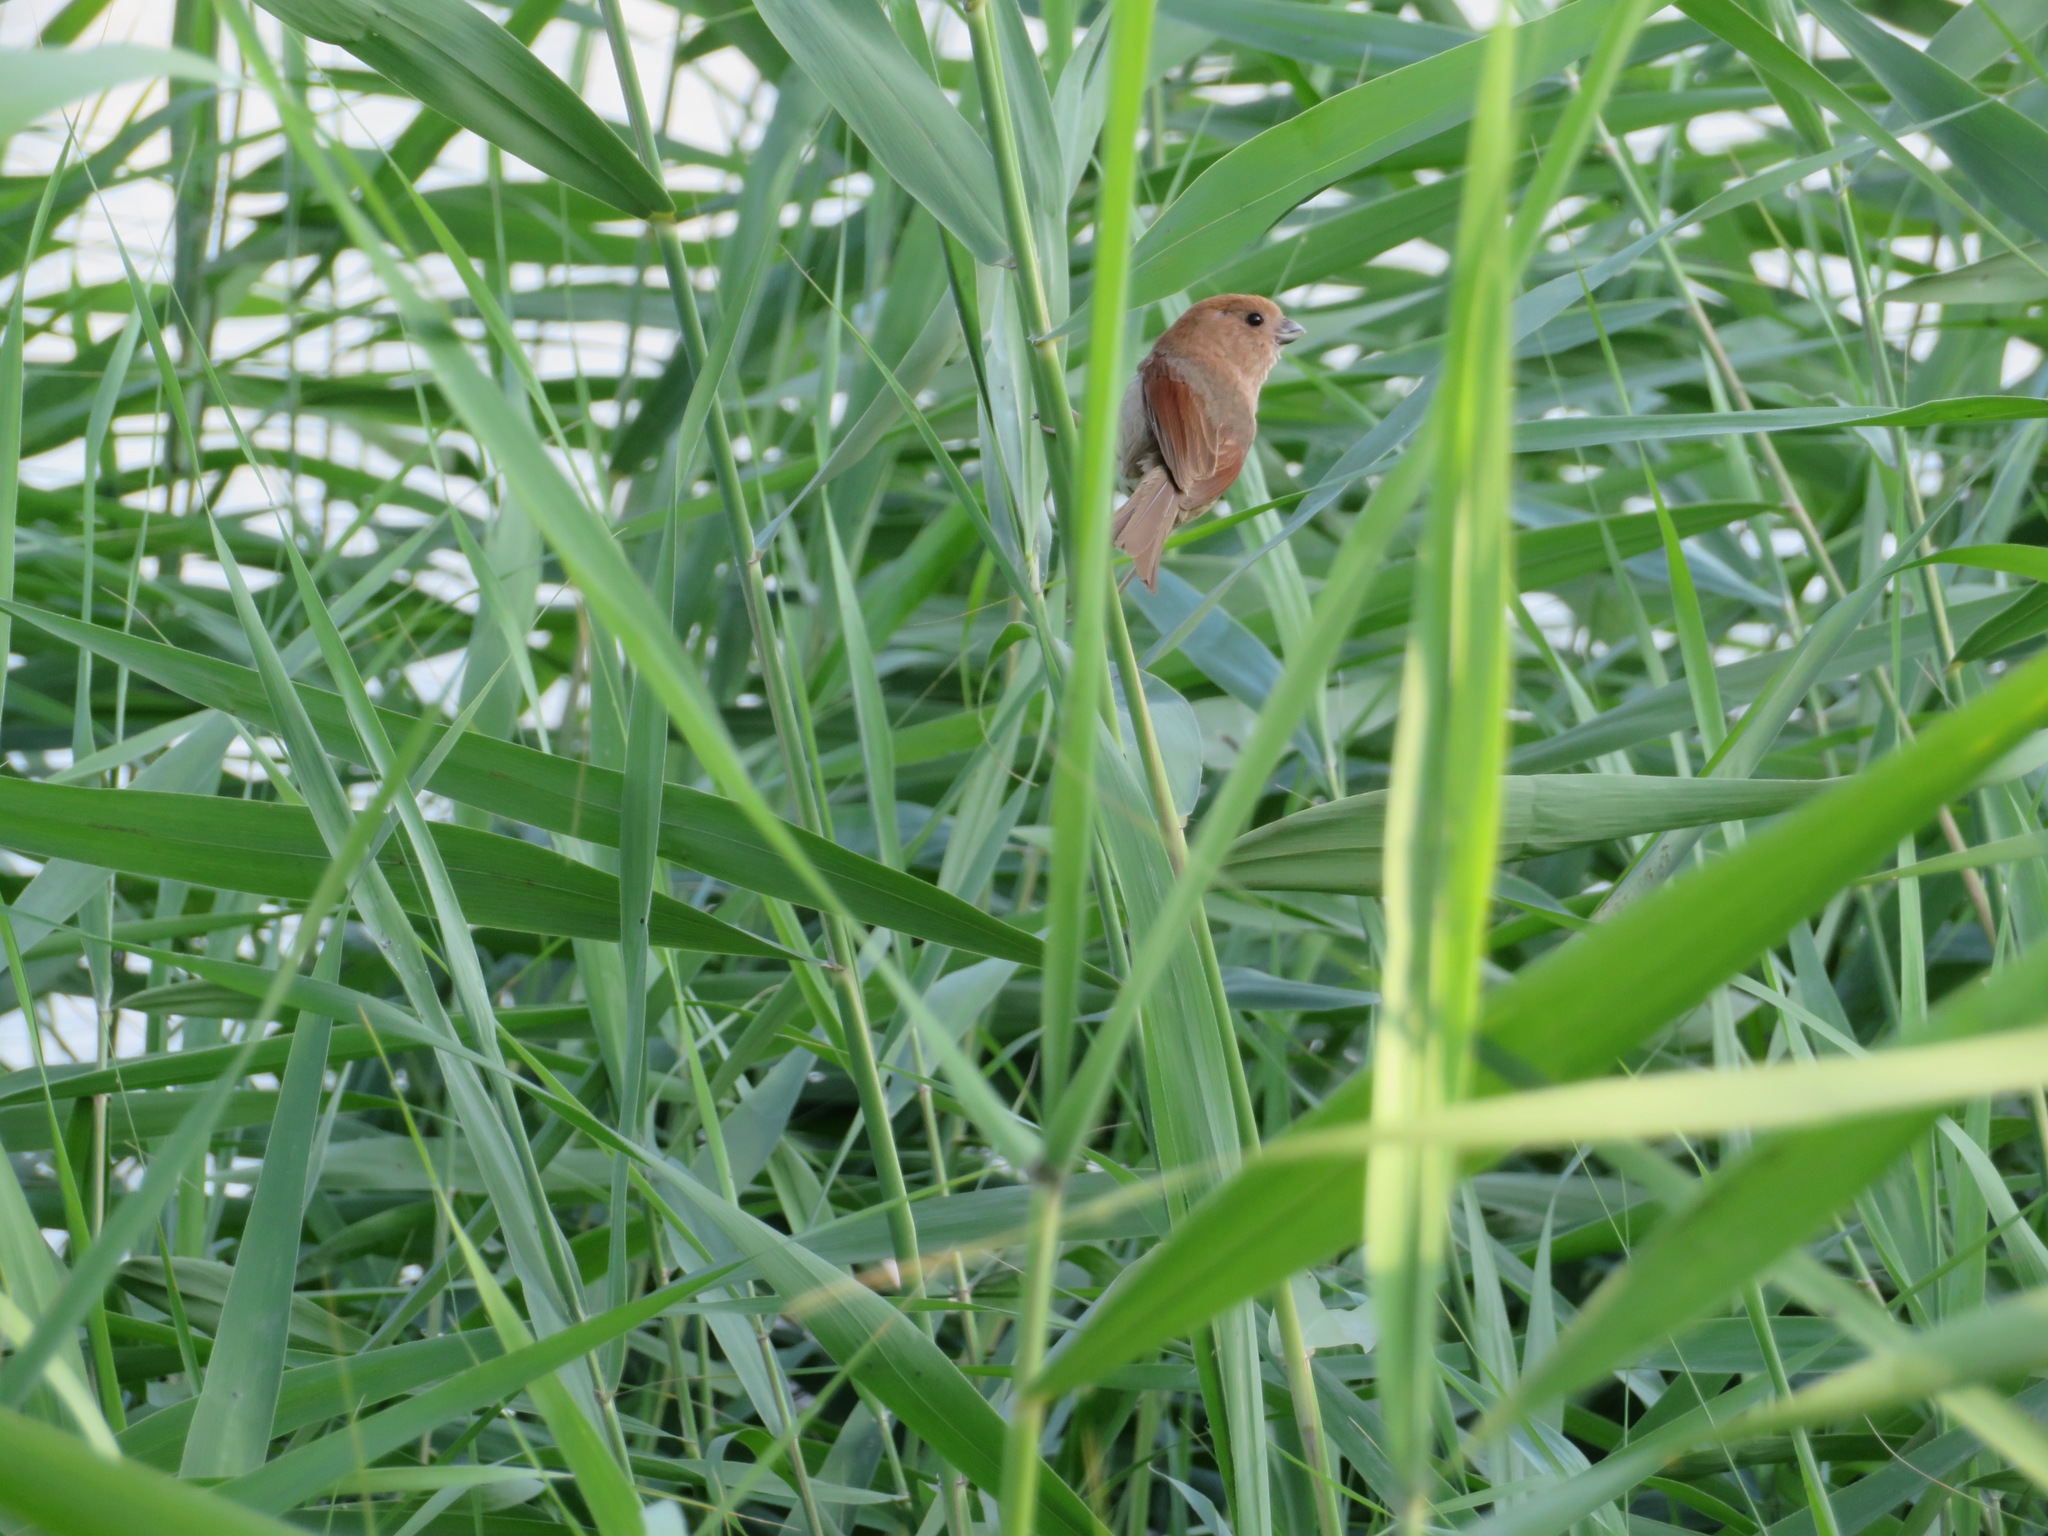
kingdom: Animalia
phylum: Chordata
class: Aves
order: Passeriformes
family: Sylviidae
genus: Sinosuthora
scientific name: Sinosuthora webbiana
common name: Vinous-throated parrotbill
